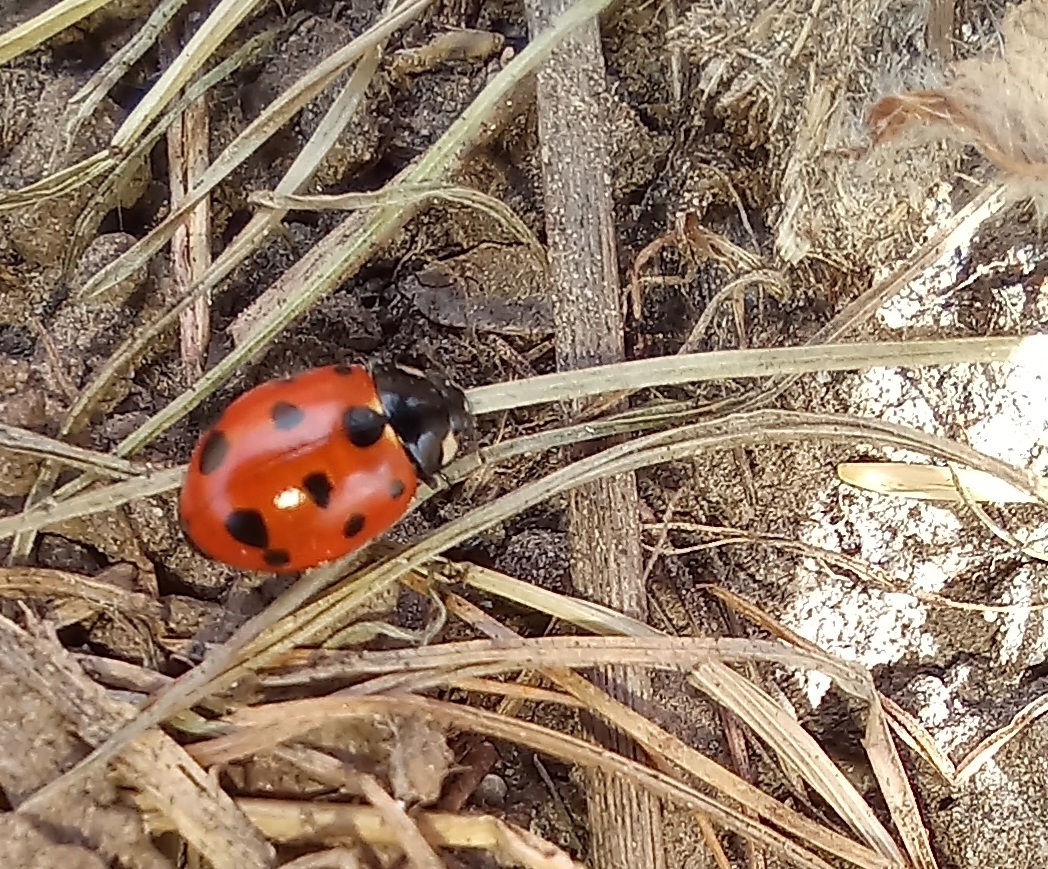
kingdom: Animalia
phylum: Arthropoda
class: Insecta
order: Coleoptera
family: Coccinellidae
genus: Coccinella
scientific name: Coccinella undecimpunctata
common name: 11-spot ladybird
